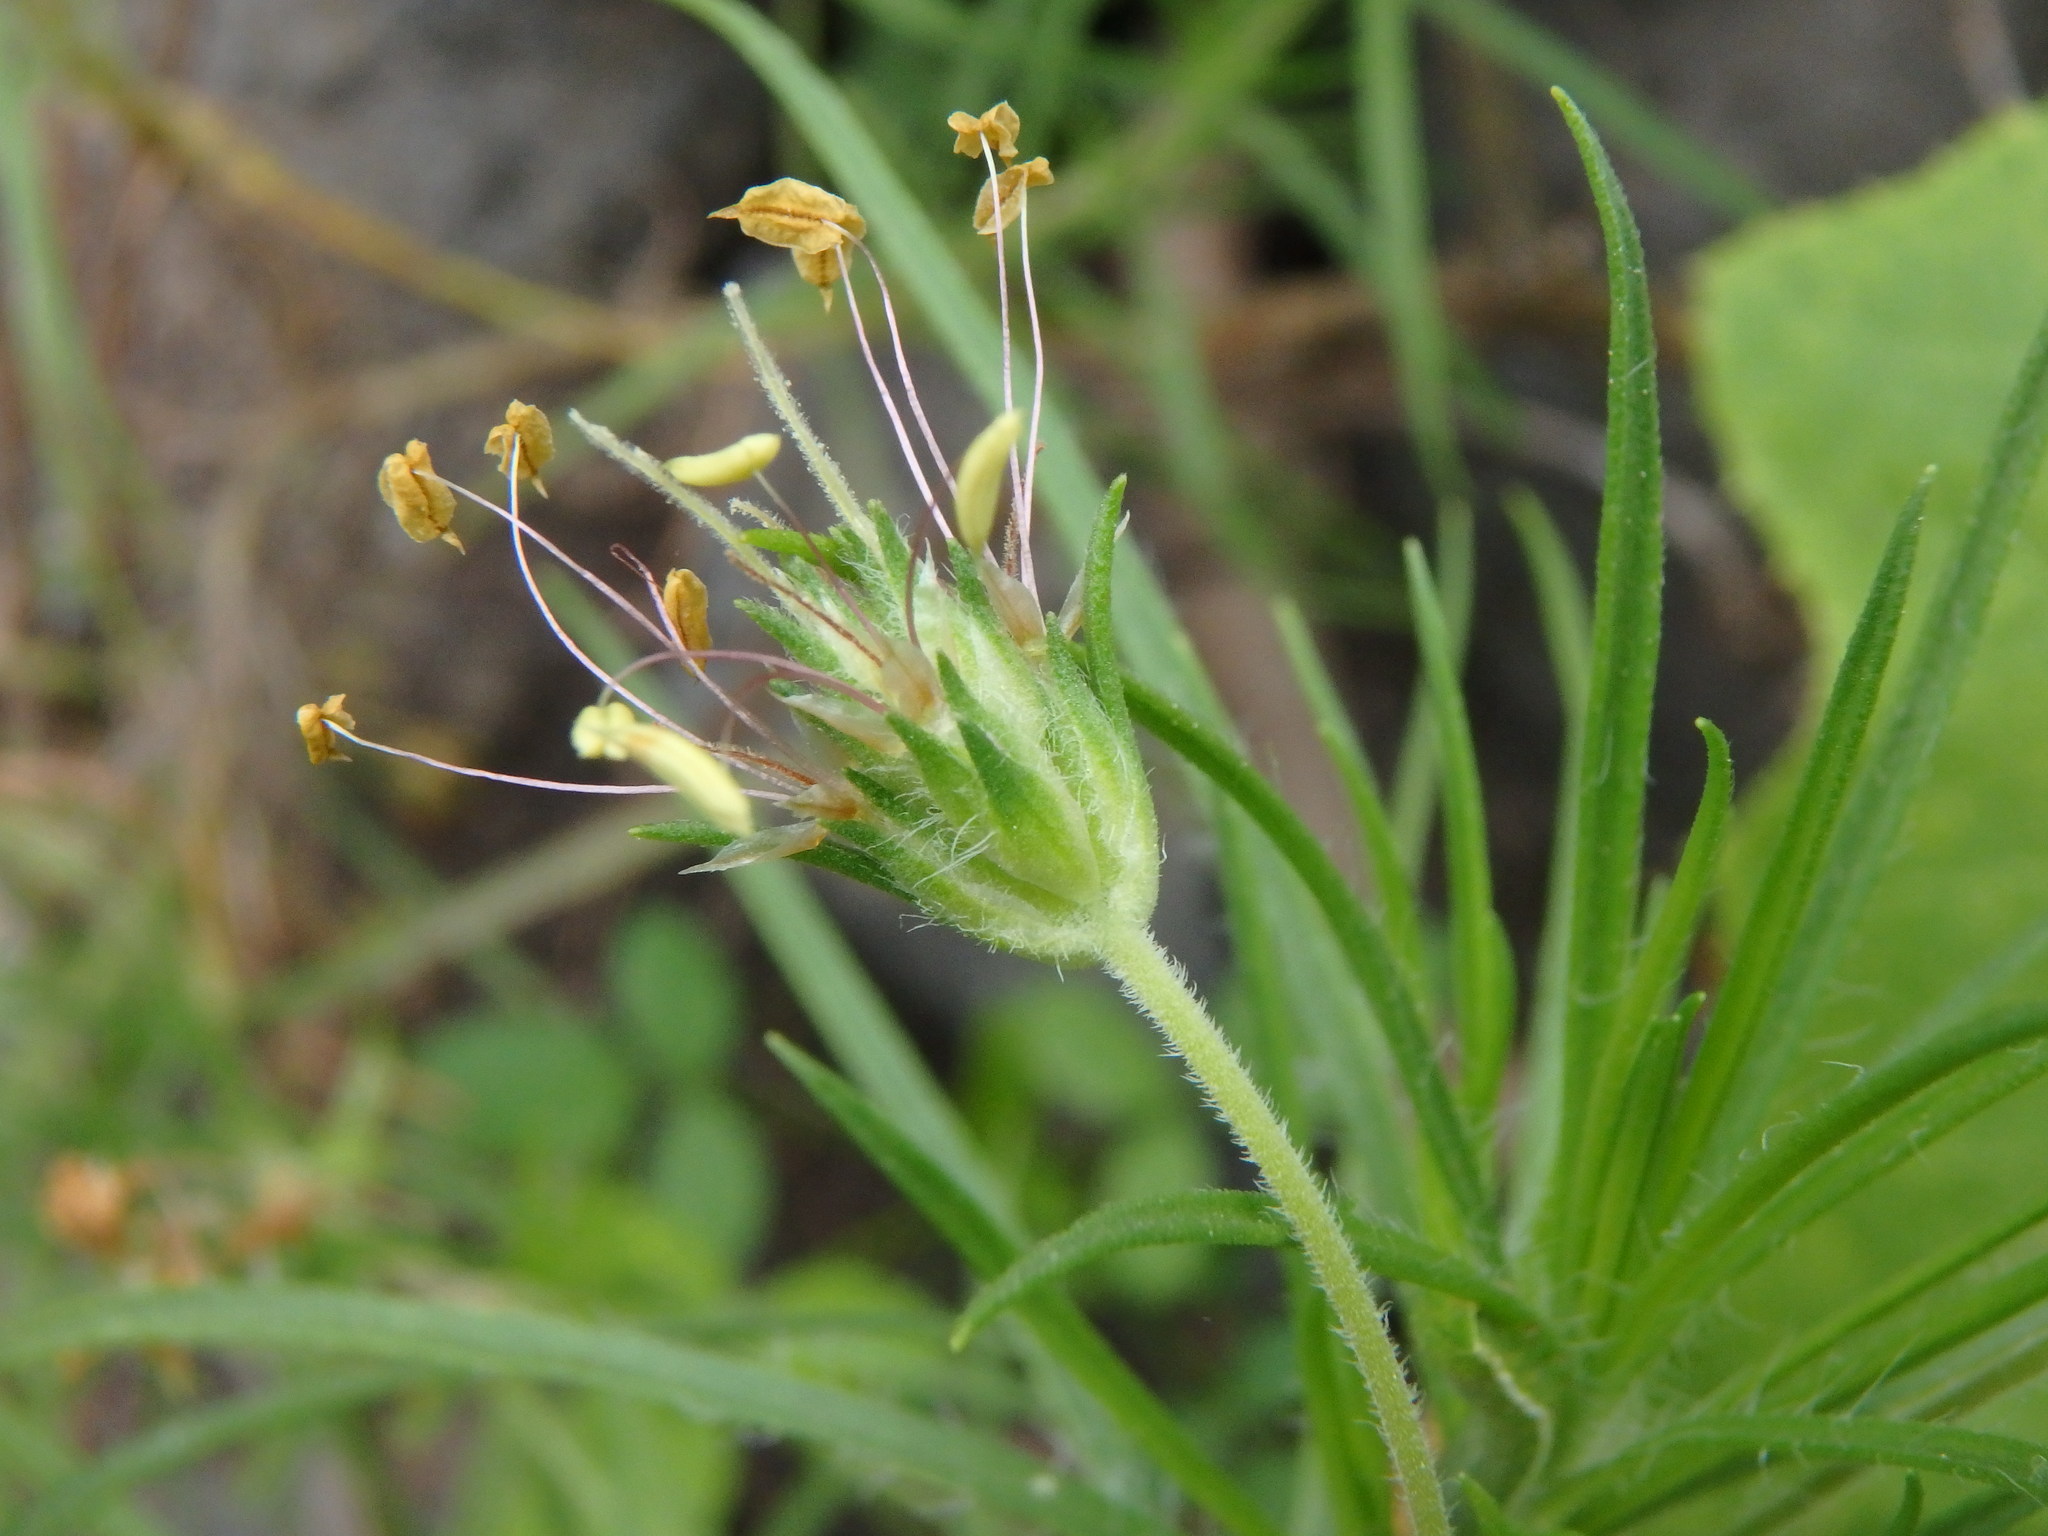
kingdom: Plantae
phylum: Tracheophyta
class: Magnoliopsida
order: Lamiales
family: Plantaginaceae
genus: Plantago
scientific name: Plantago arborescens
